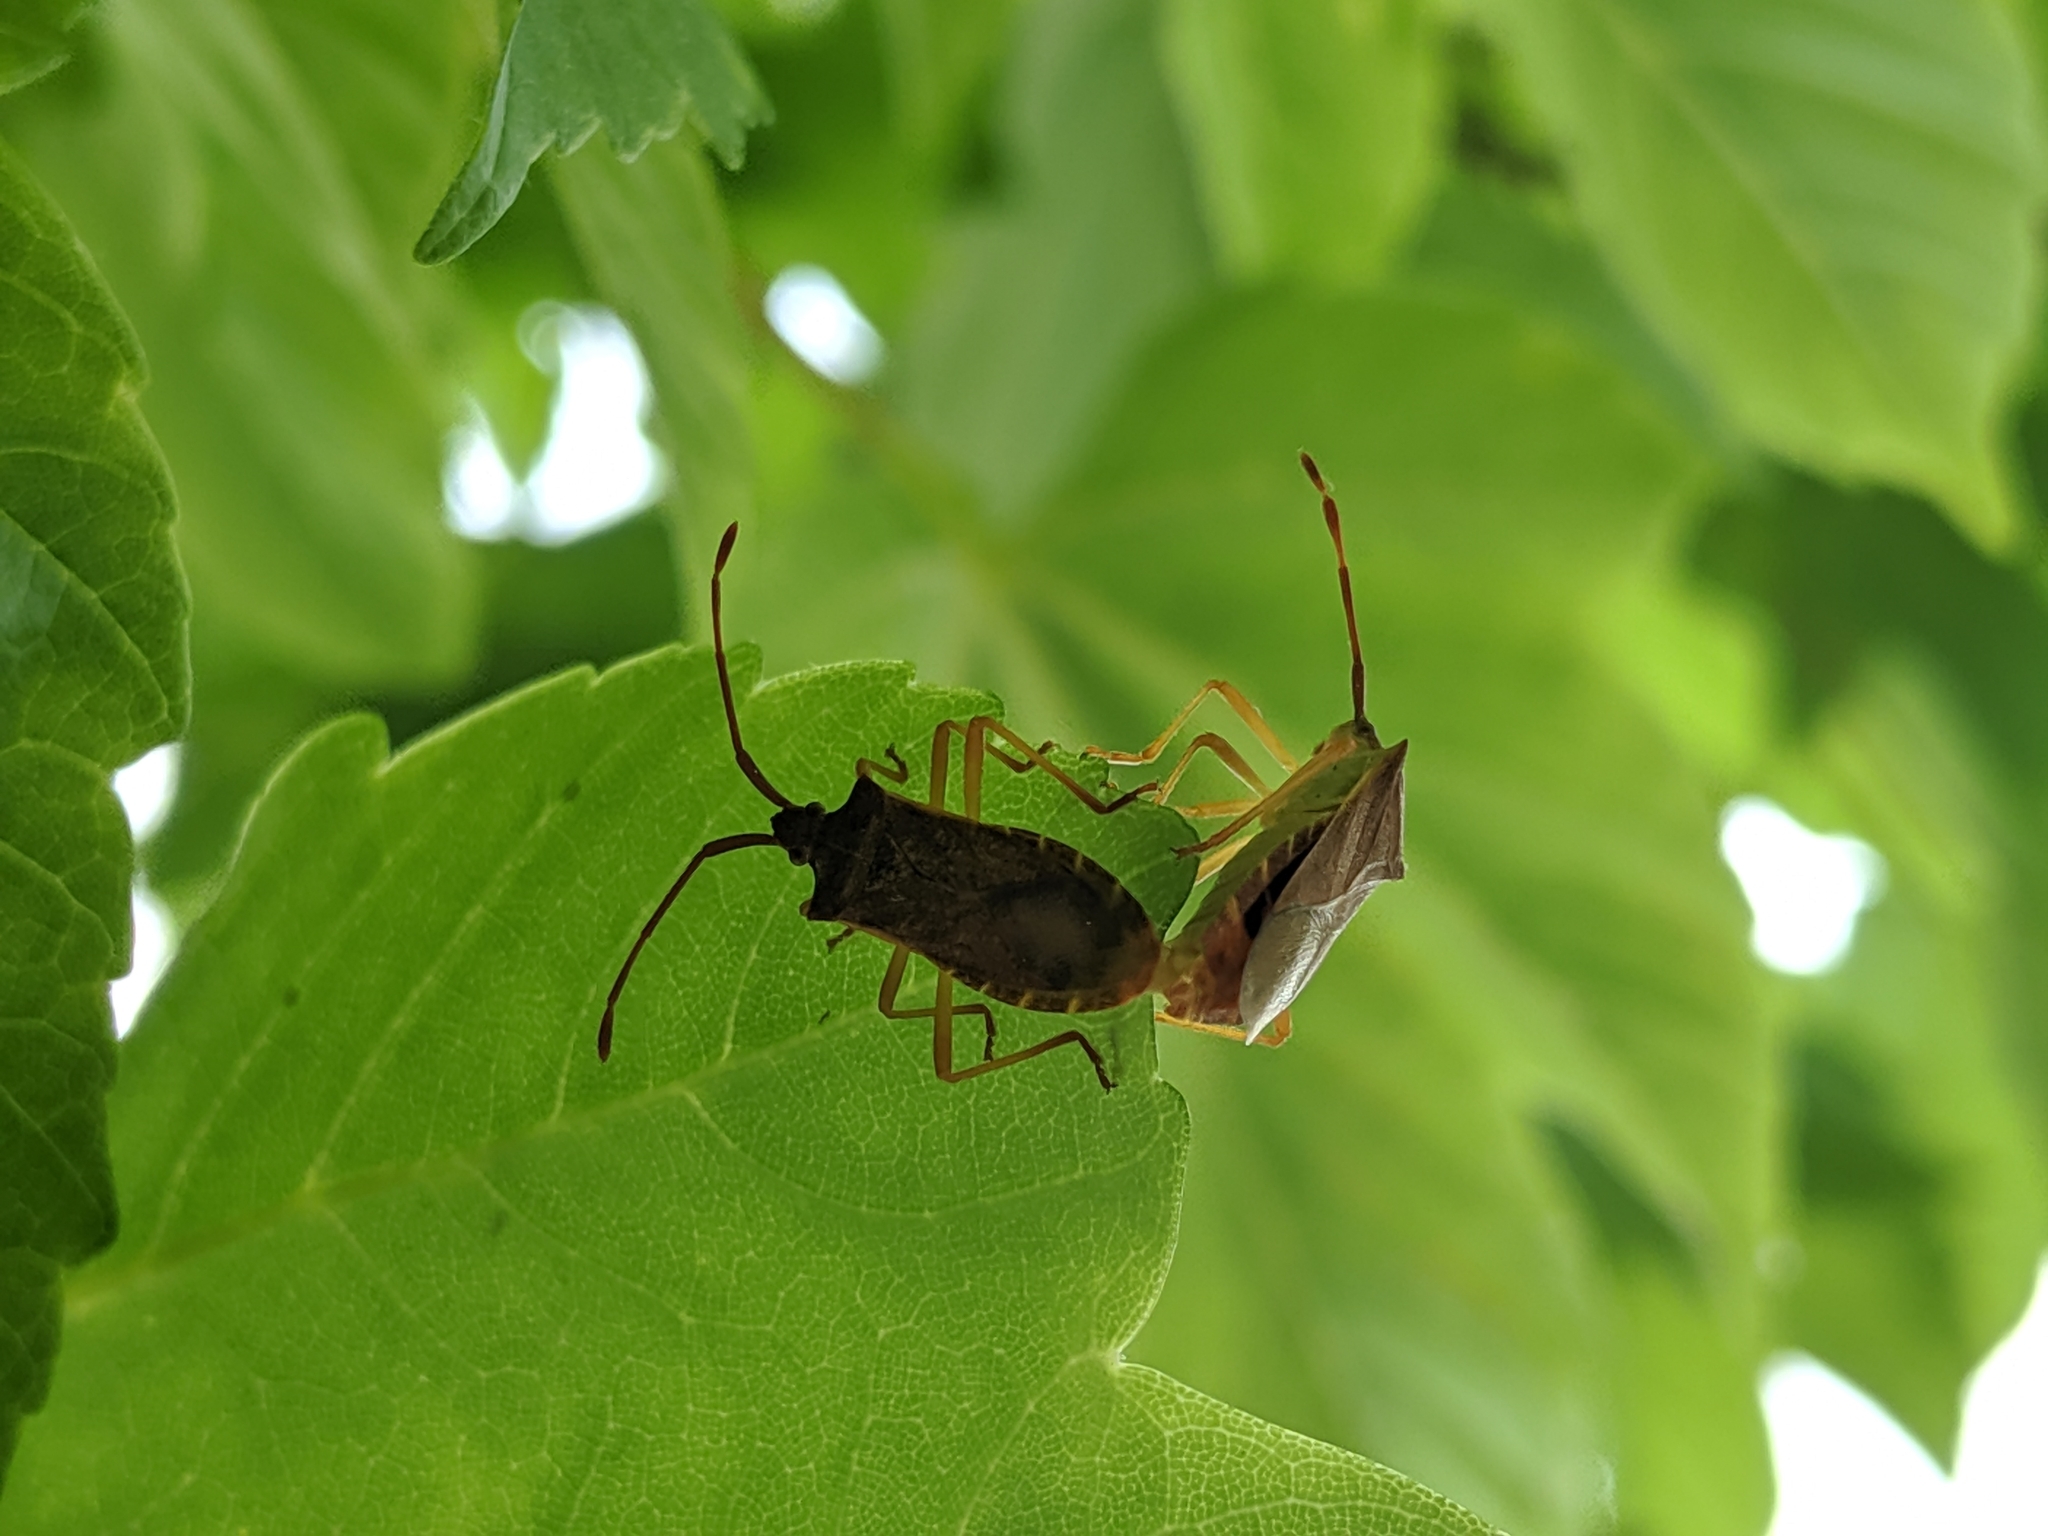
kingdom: Animalia
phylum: Arthropoda
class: Insecta
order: Hemiptera
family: Coreidae
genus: Gonocerus
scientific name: Gonocerus acuteangulatus
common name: Box bug
